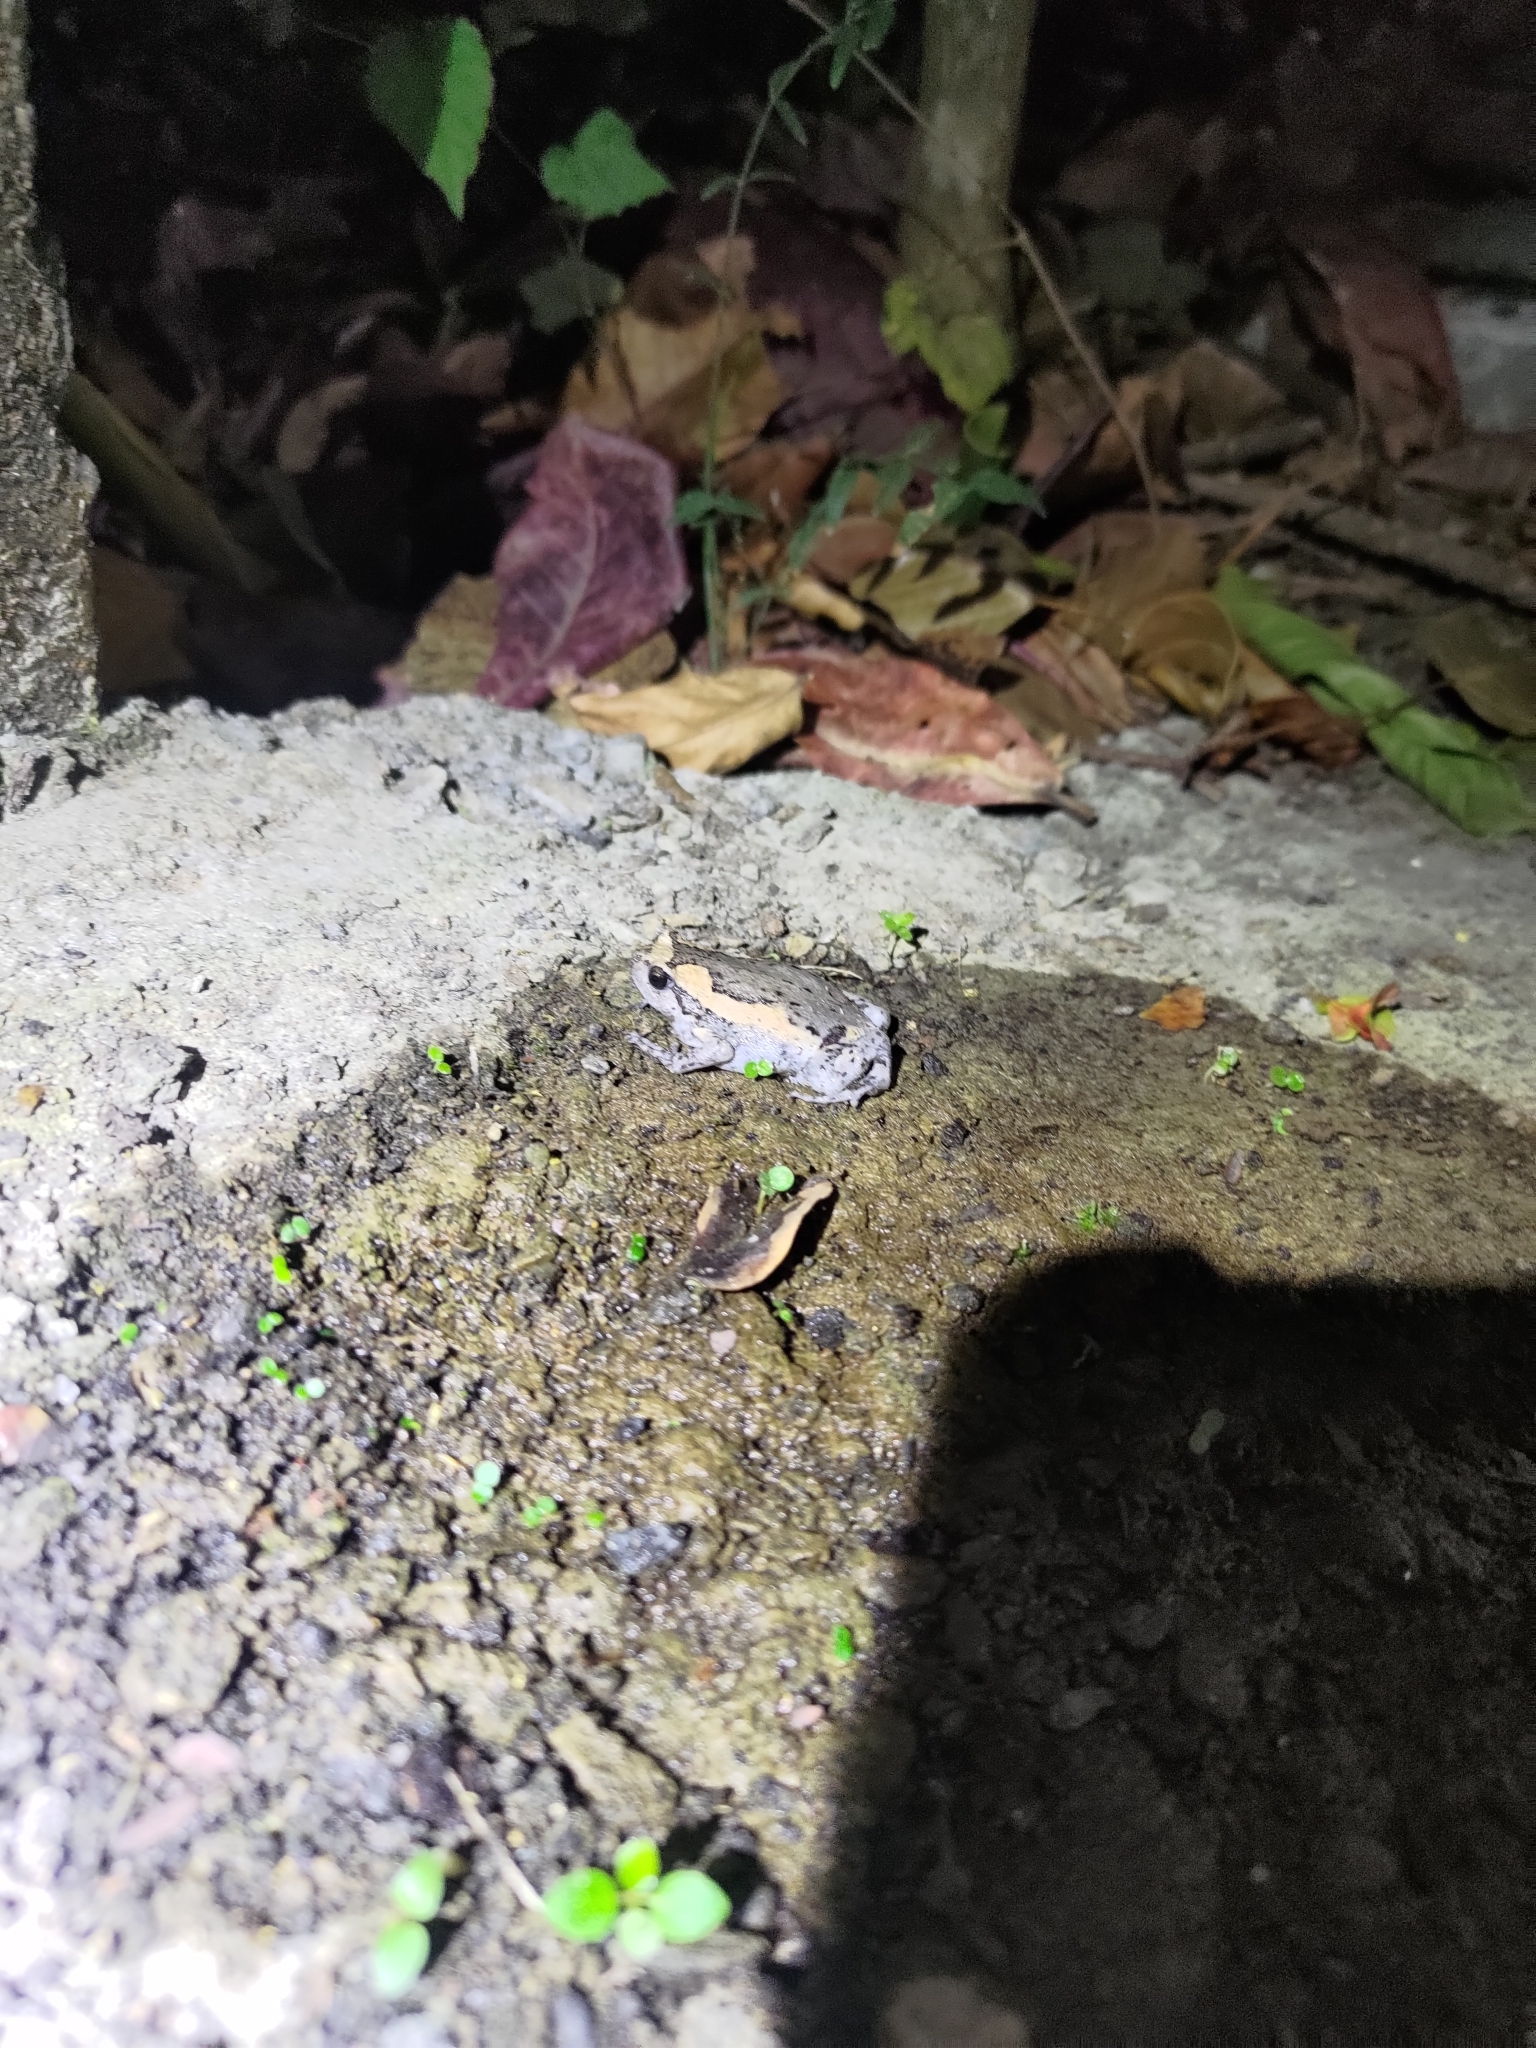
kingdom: Animalia
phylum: Chordata
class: Amphibia
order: Anura
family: Microhylidae
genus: Kaloula
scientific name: Kaloula pulchra
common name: Common,banded bullfrog
